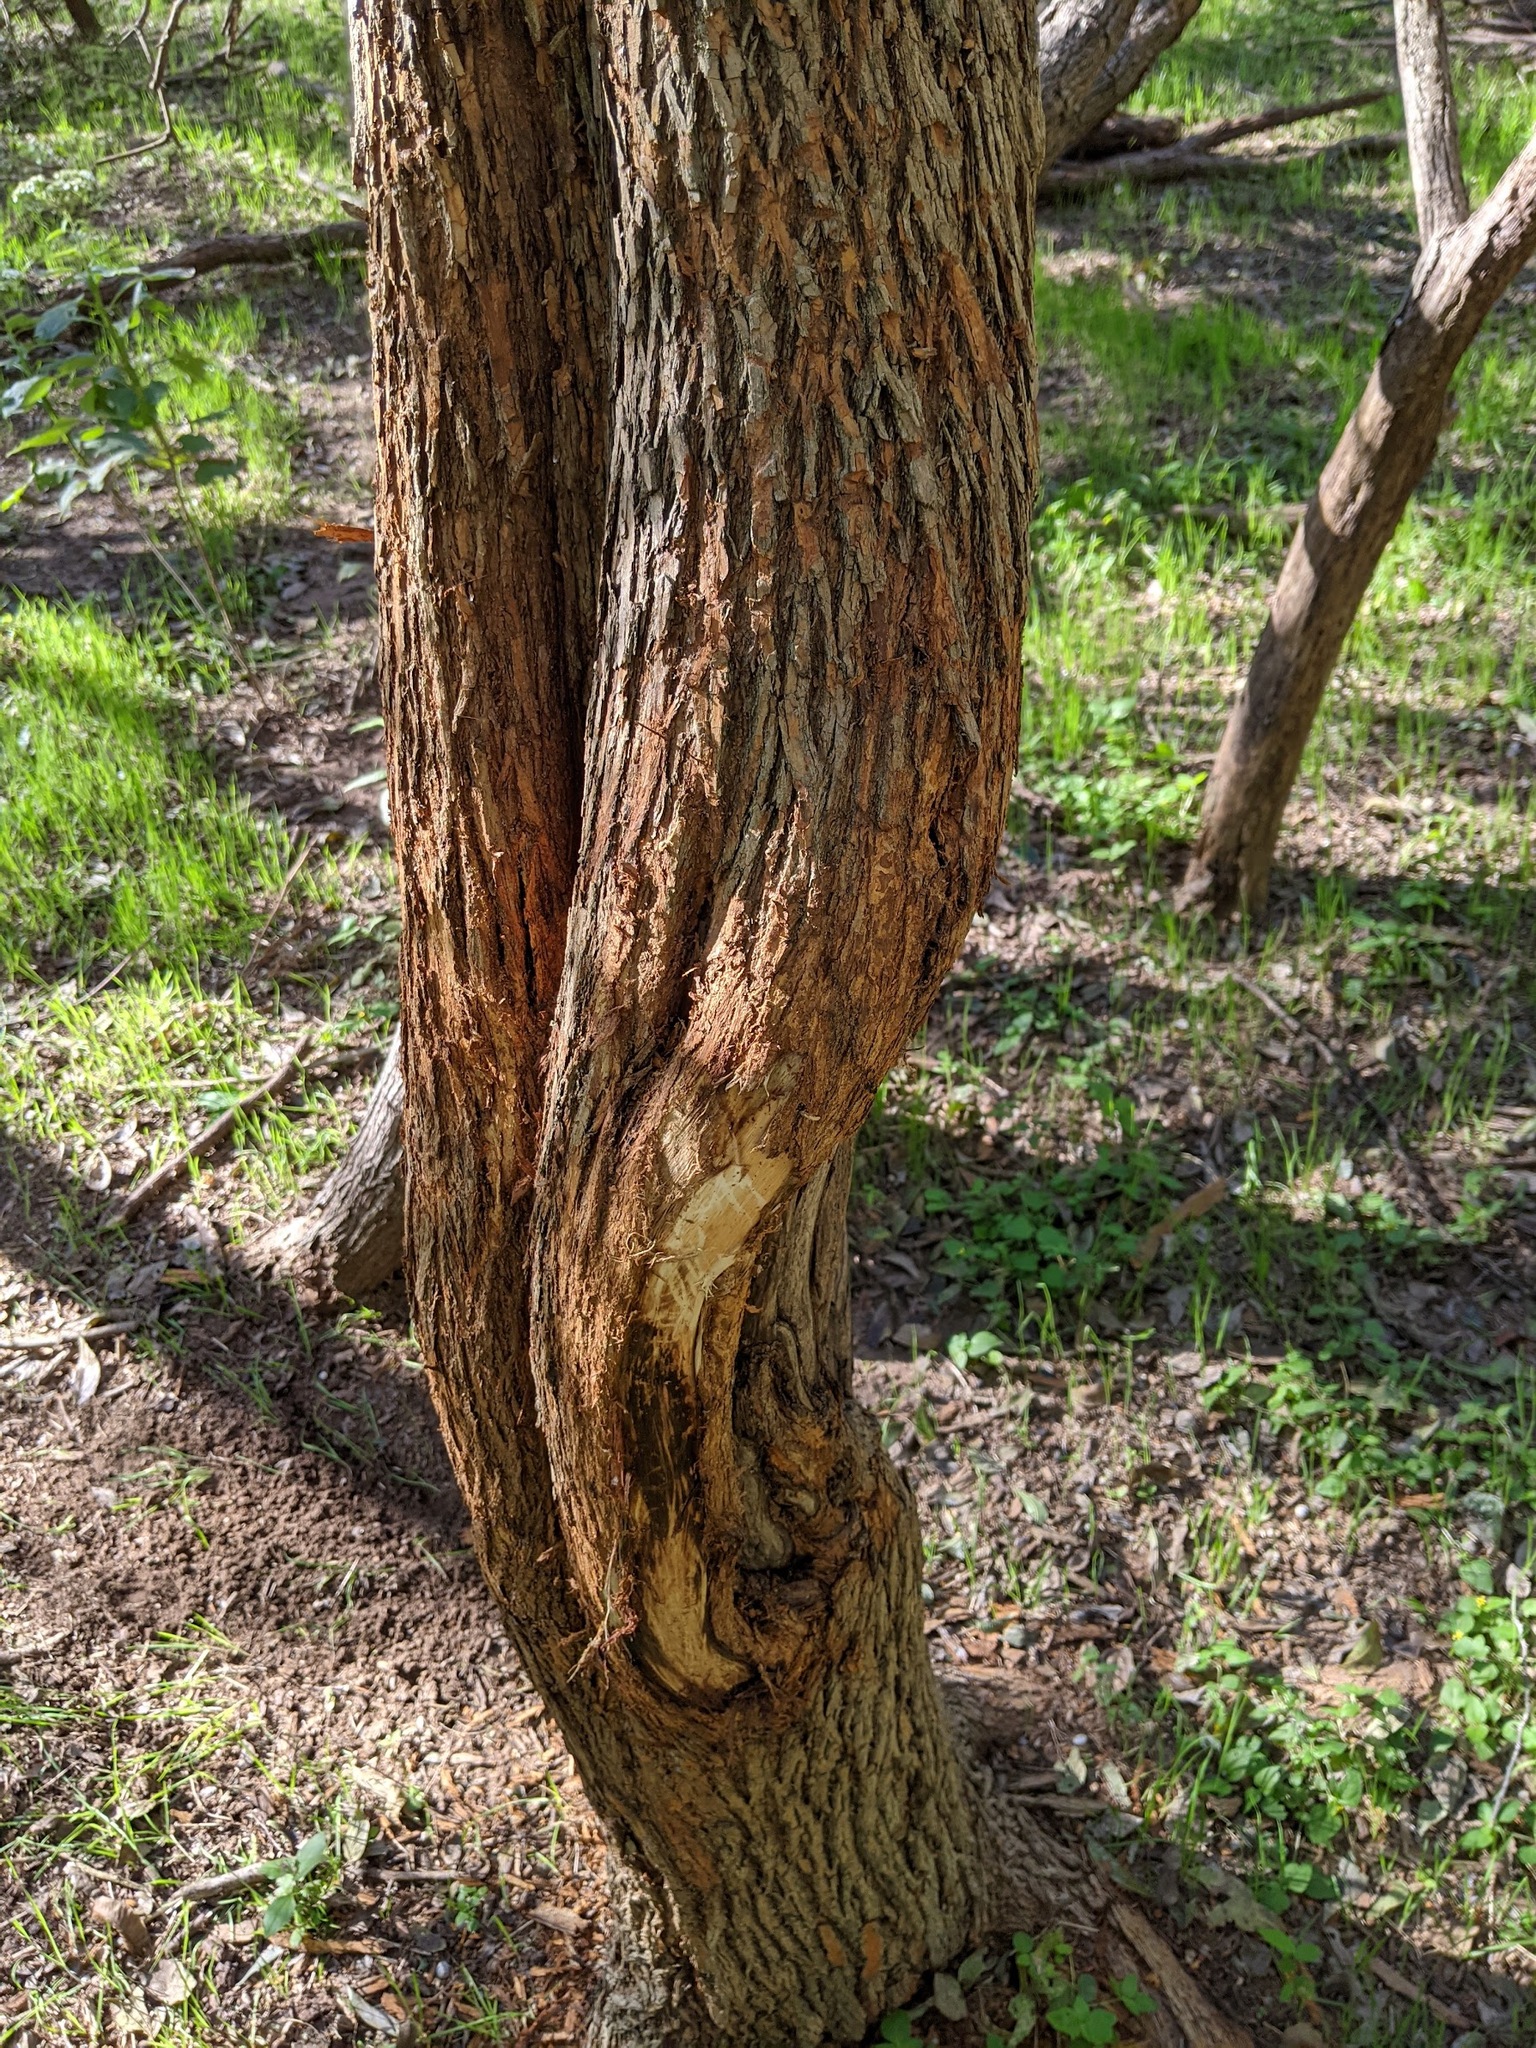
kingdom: Plantae
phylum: Tracheophyta
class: Magnoliopsida
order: Rosales
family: Moraceae
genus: Maclura
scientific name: Maclura pomifera
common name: Osage-orange
